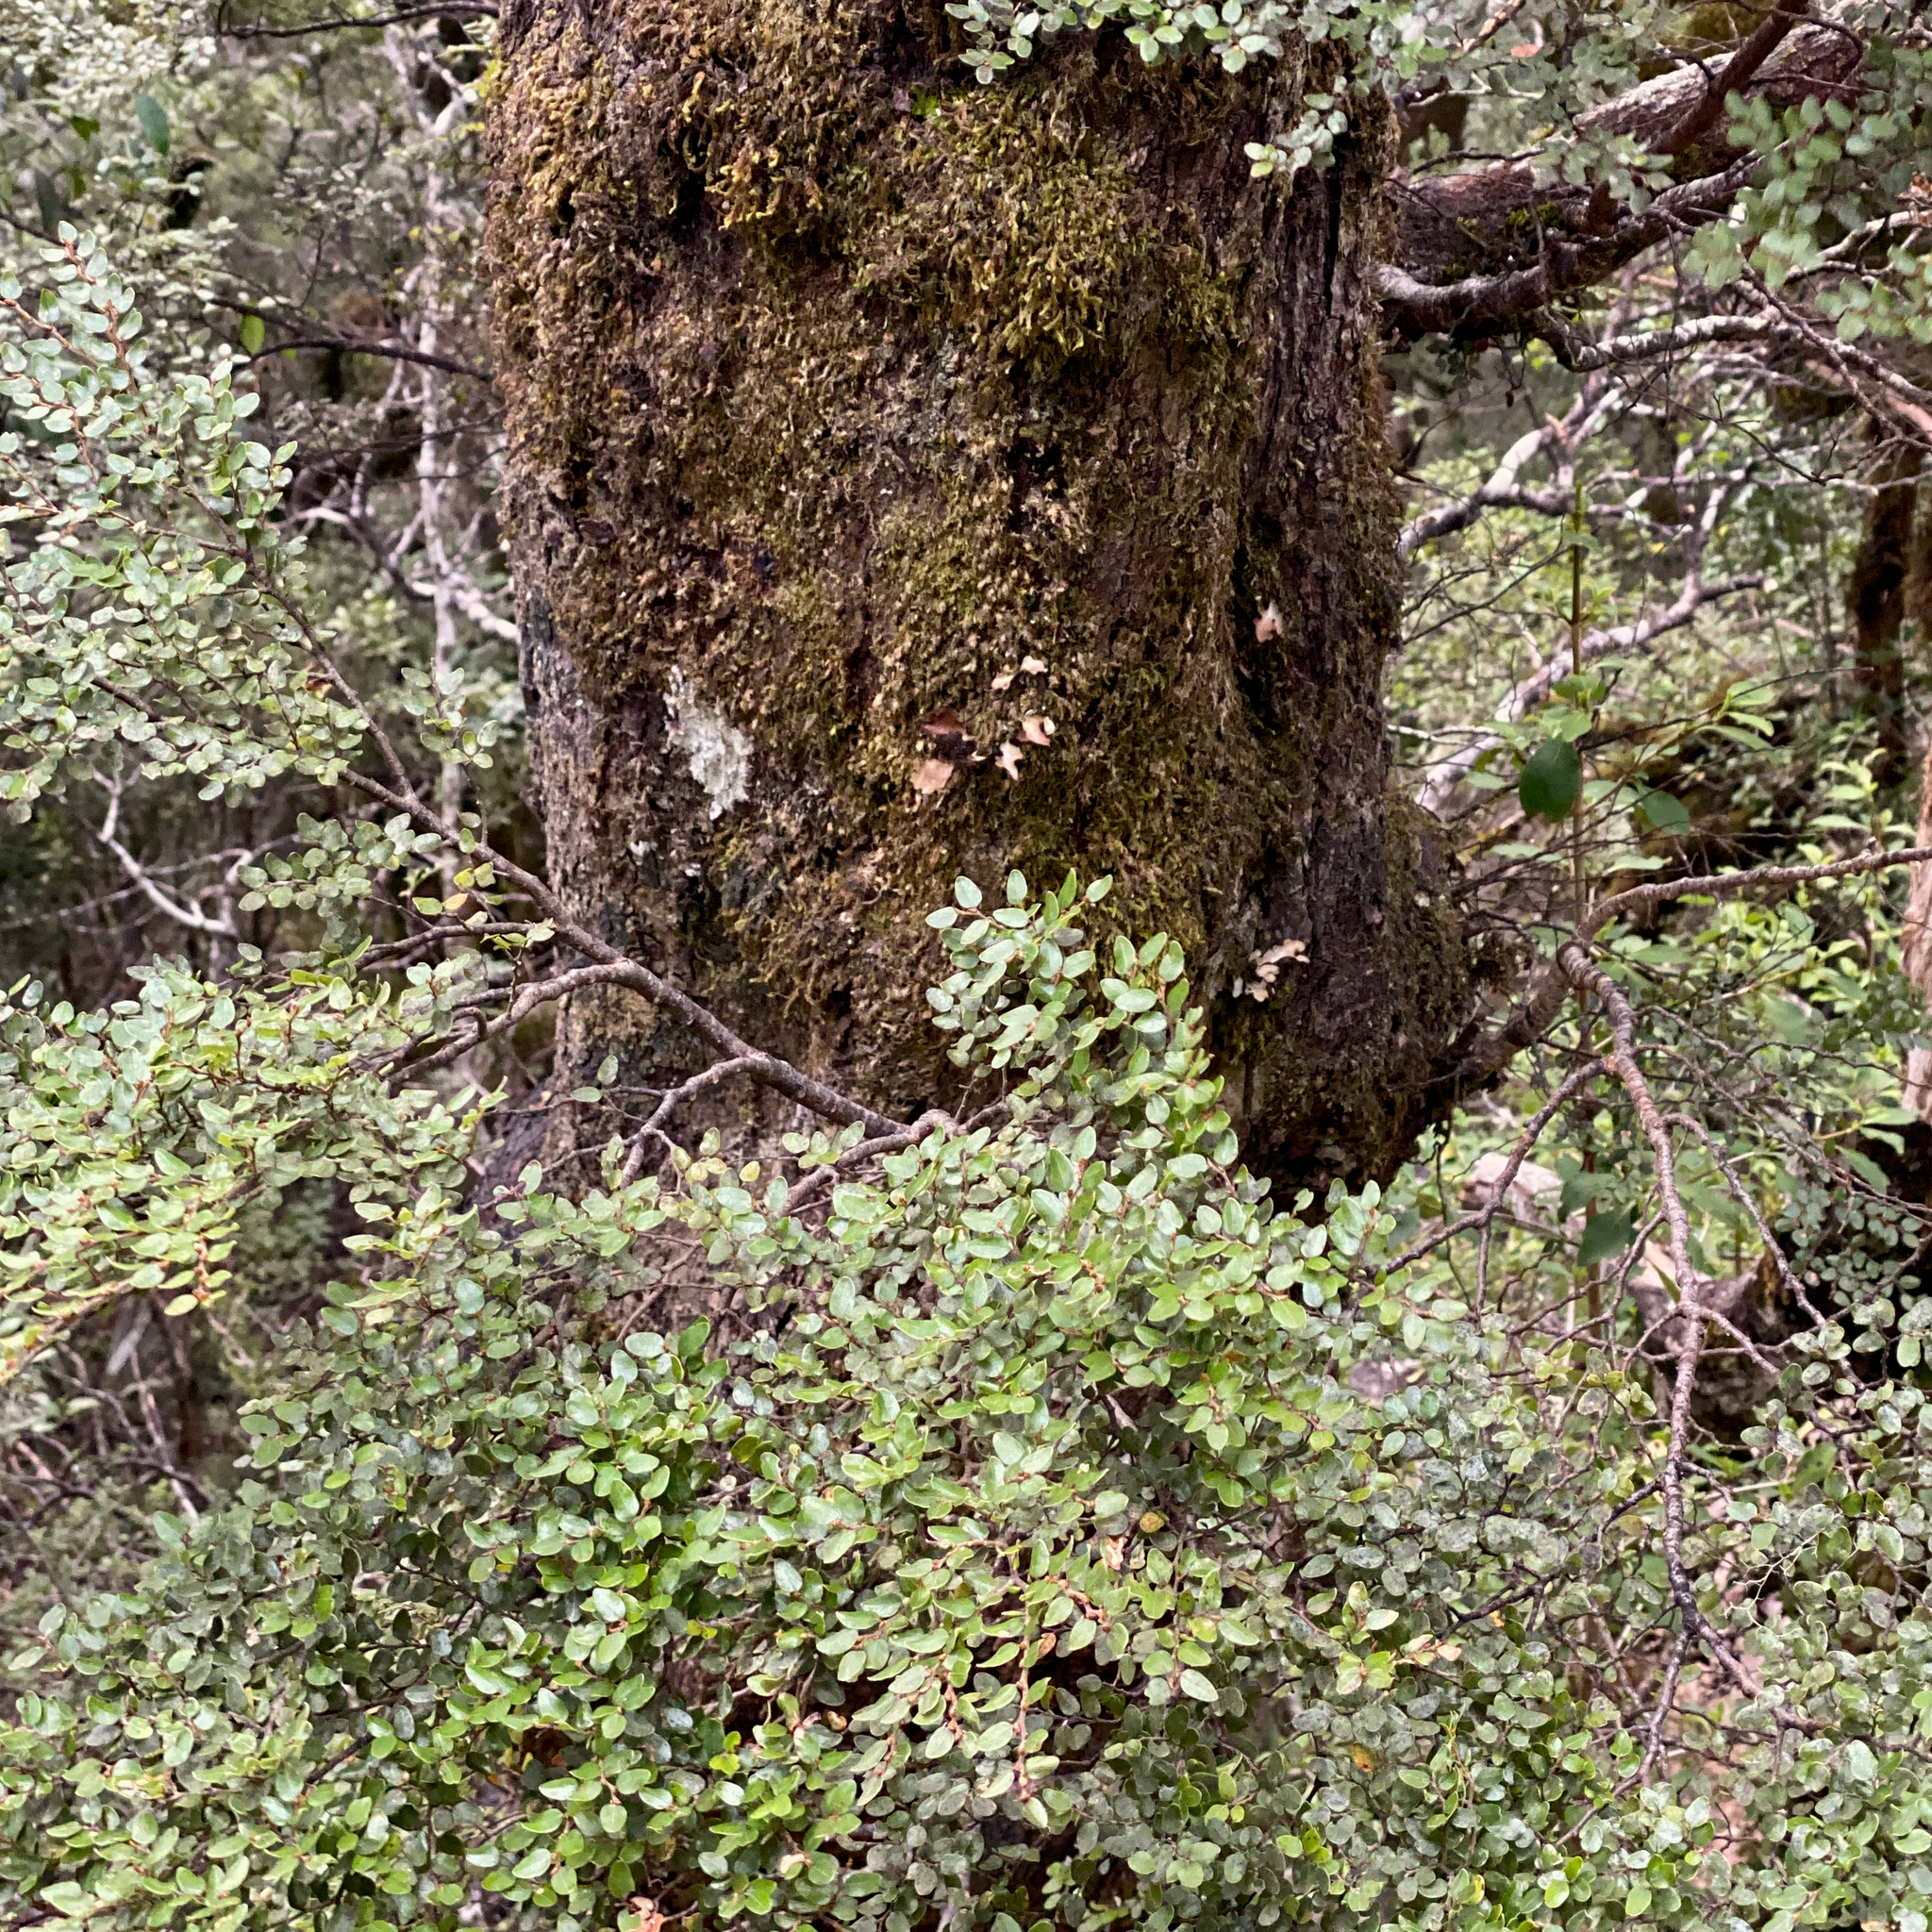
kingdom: Plantae
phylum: Tracheophyta
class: Magnoliopsida
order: Fagales
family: Nothofagaceae
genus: Nothofagus
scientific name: Nothofagus cliffortioides
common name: Mountain beech
